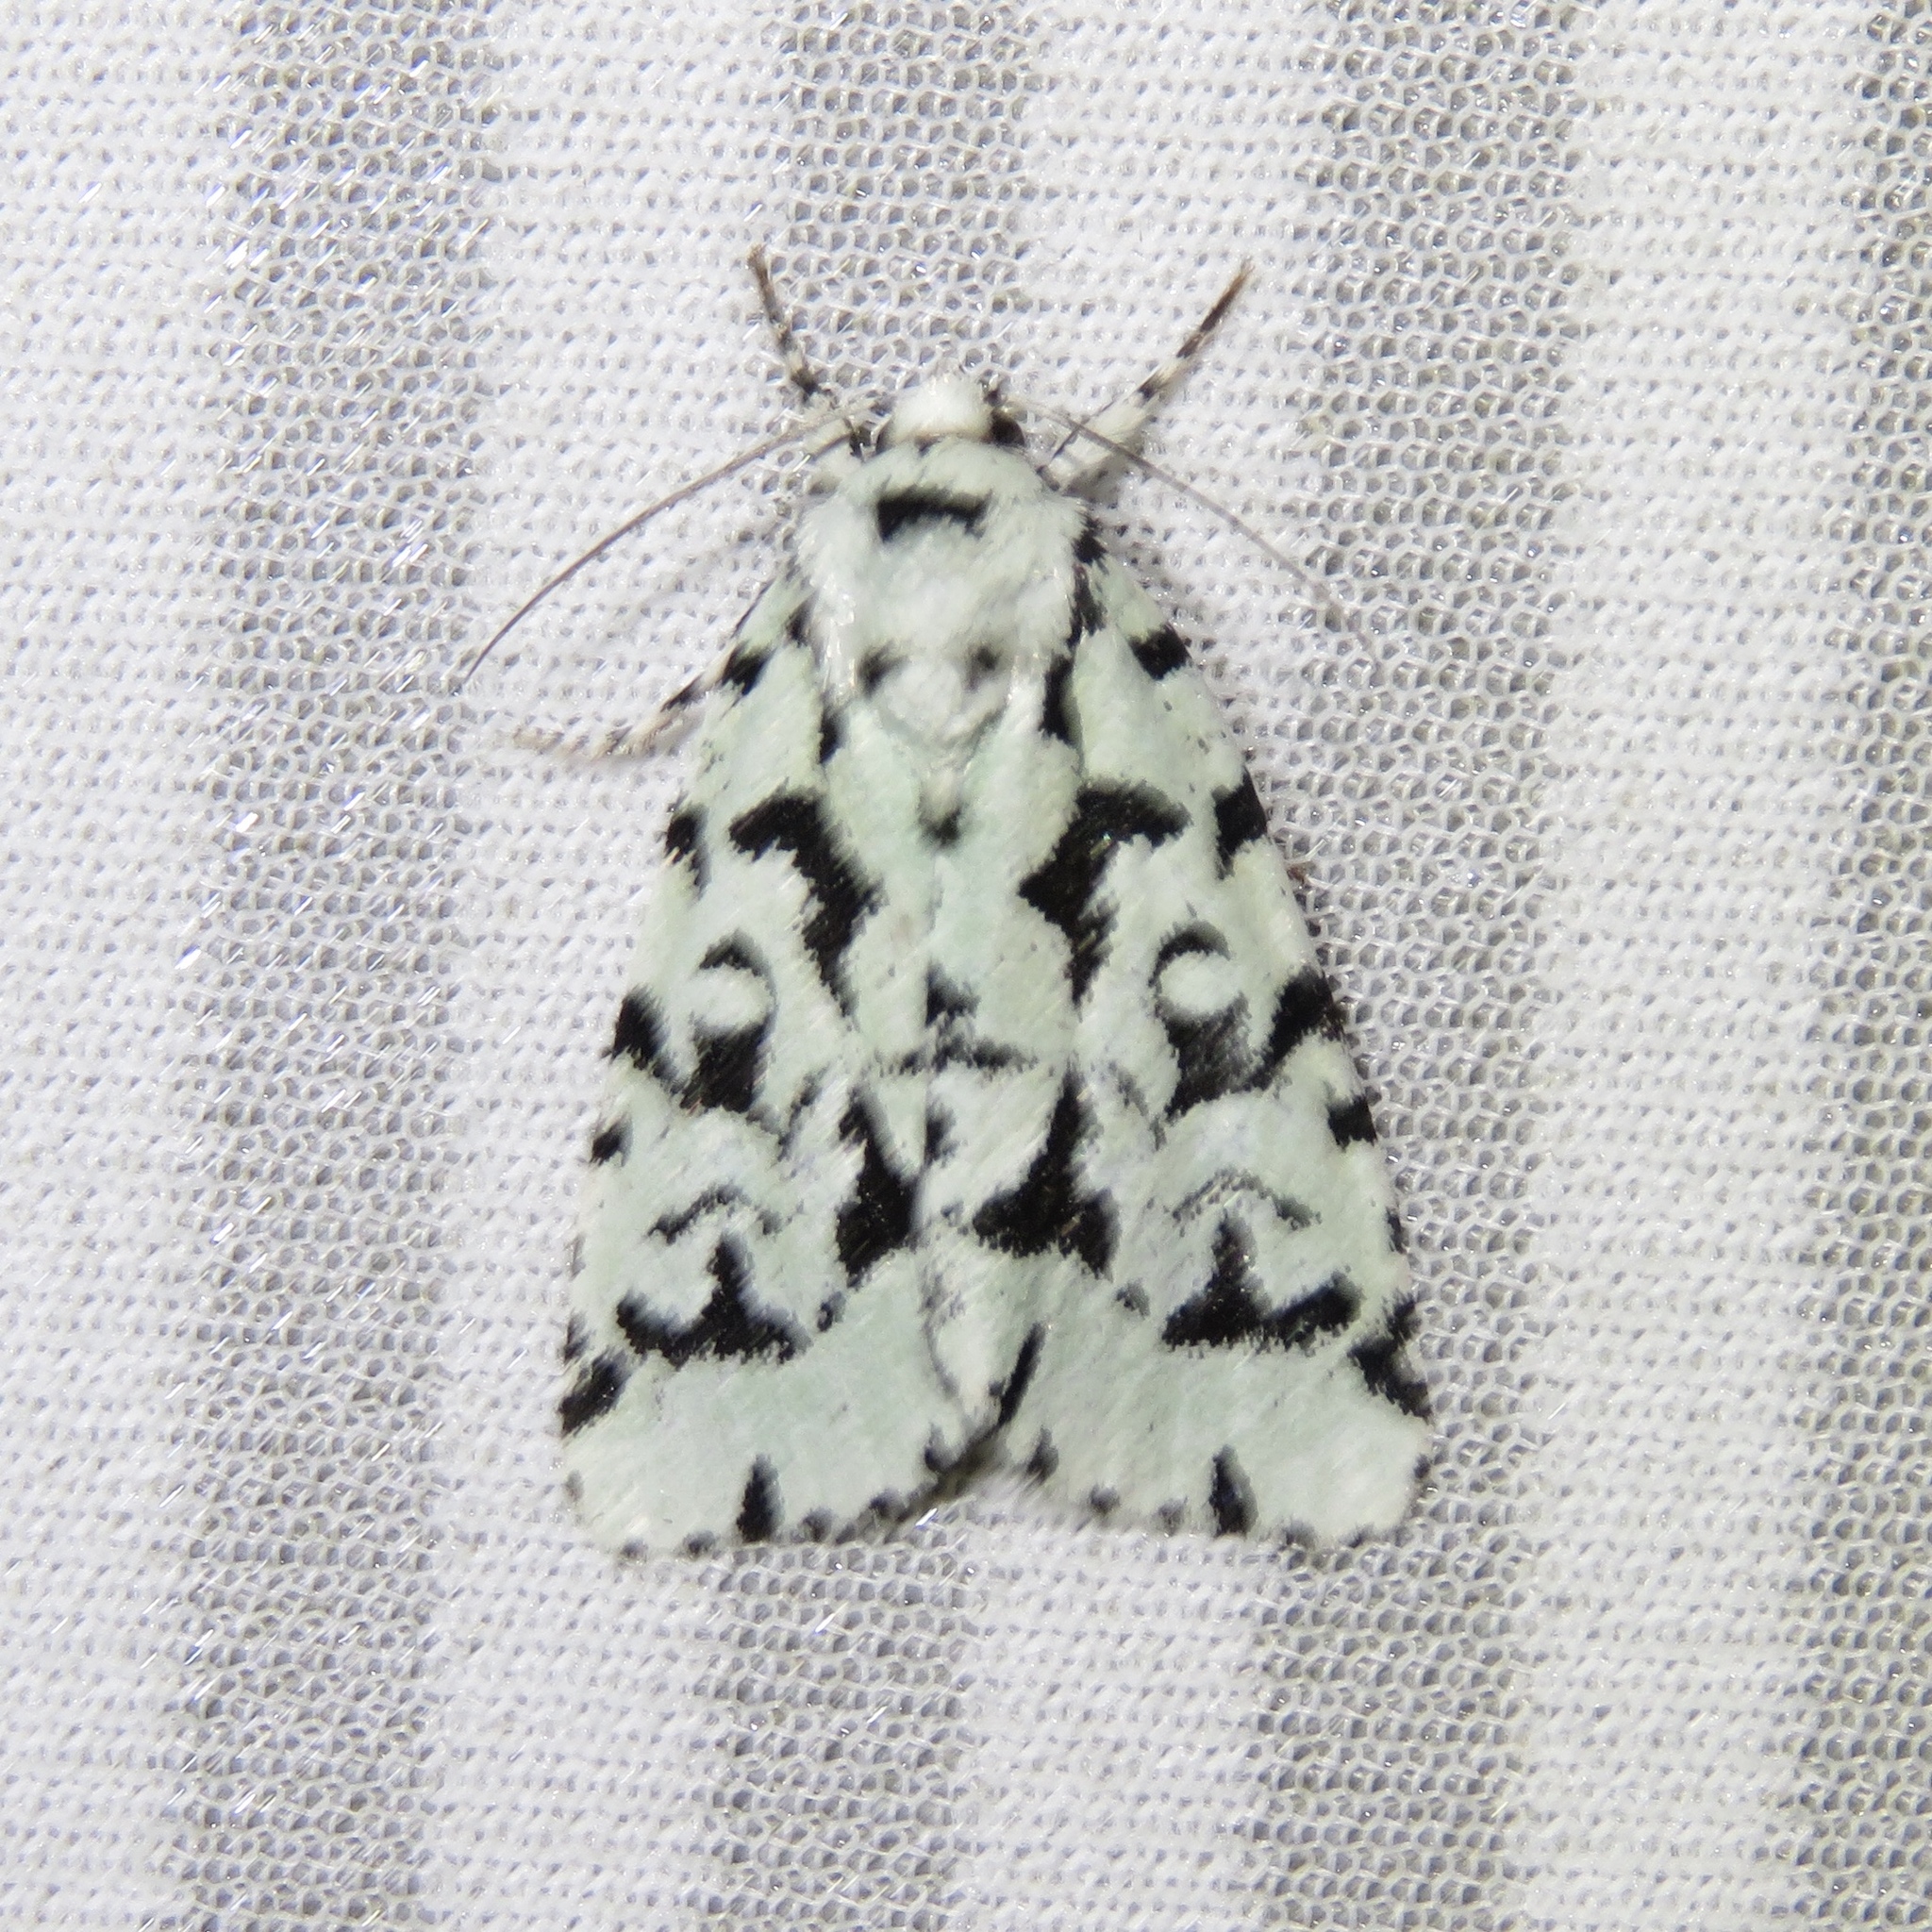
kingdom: Animalia
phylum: Arthropoda
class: Insecta
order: Lepidoptera
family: Noctuidae
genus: Acronicta
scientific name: Acronicta fallax
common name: Green marvel
